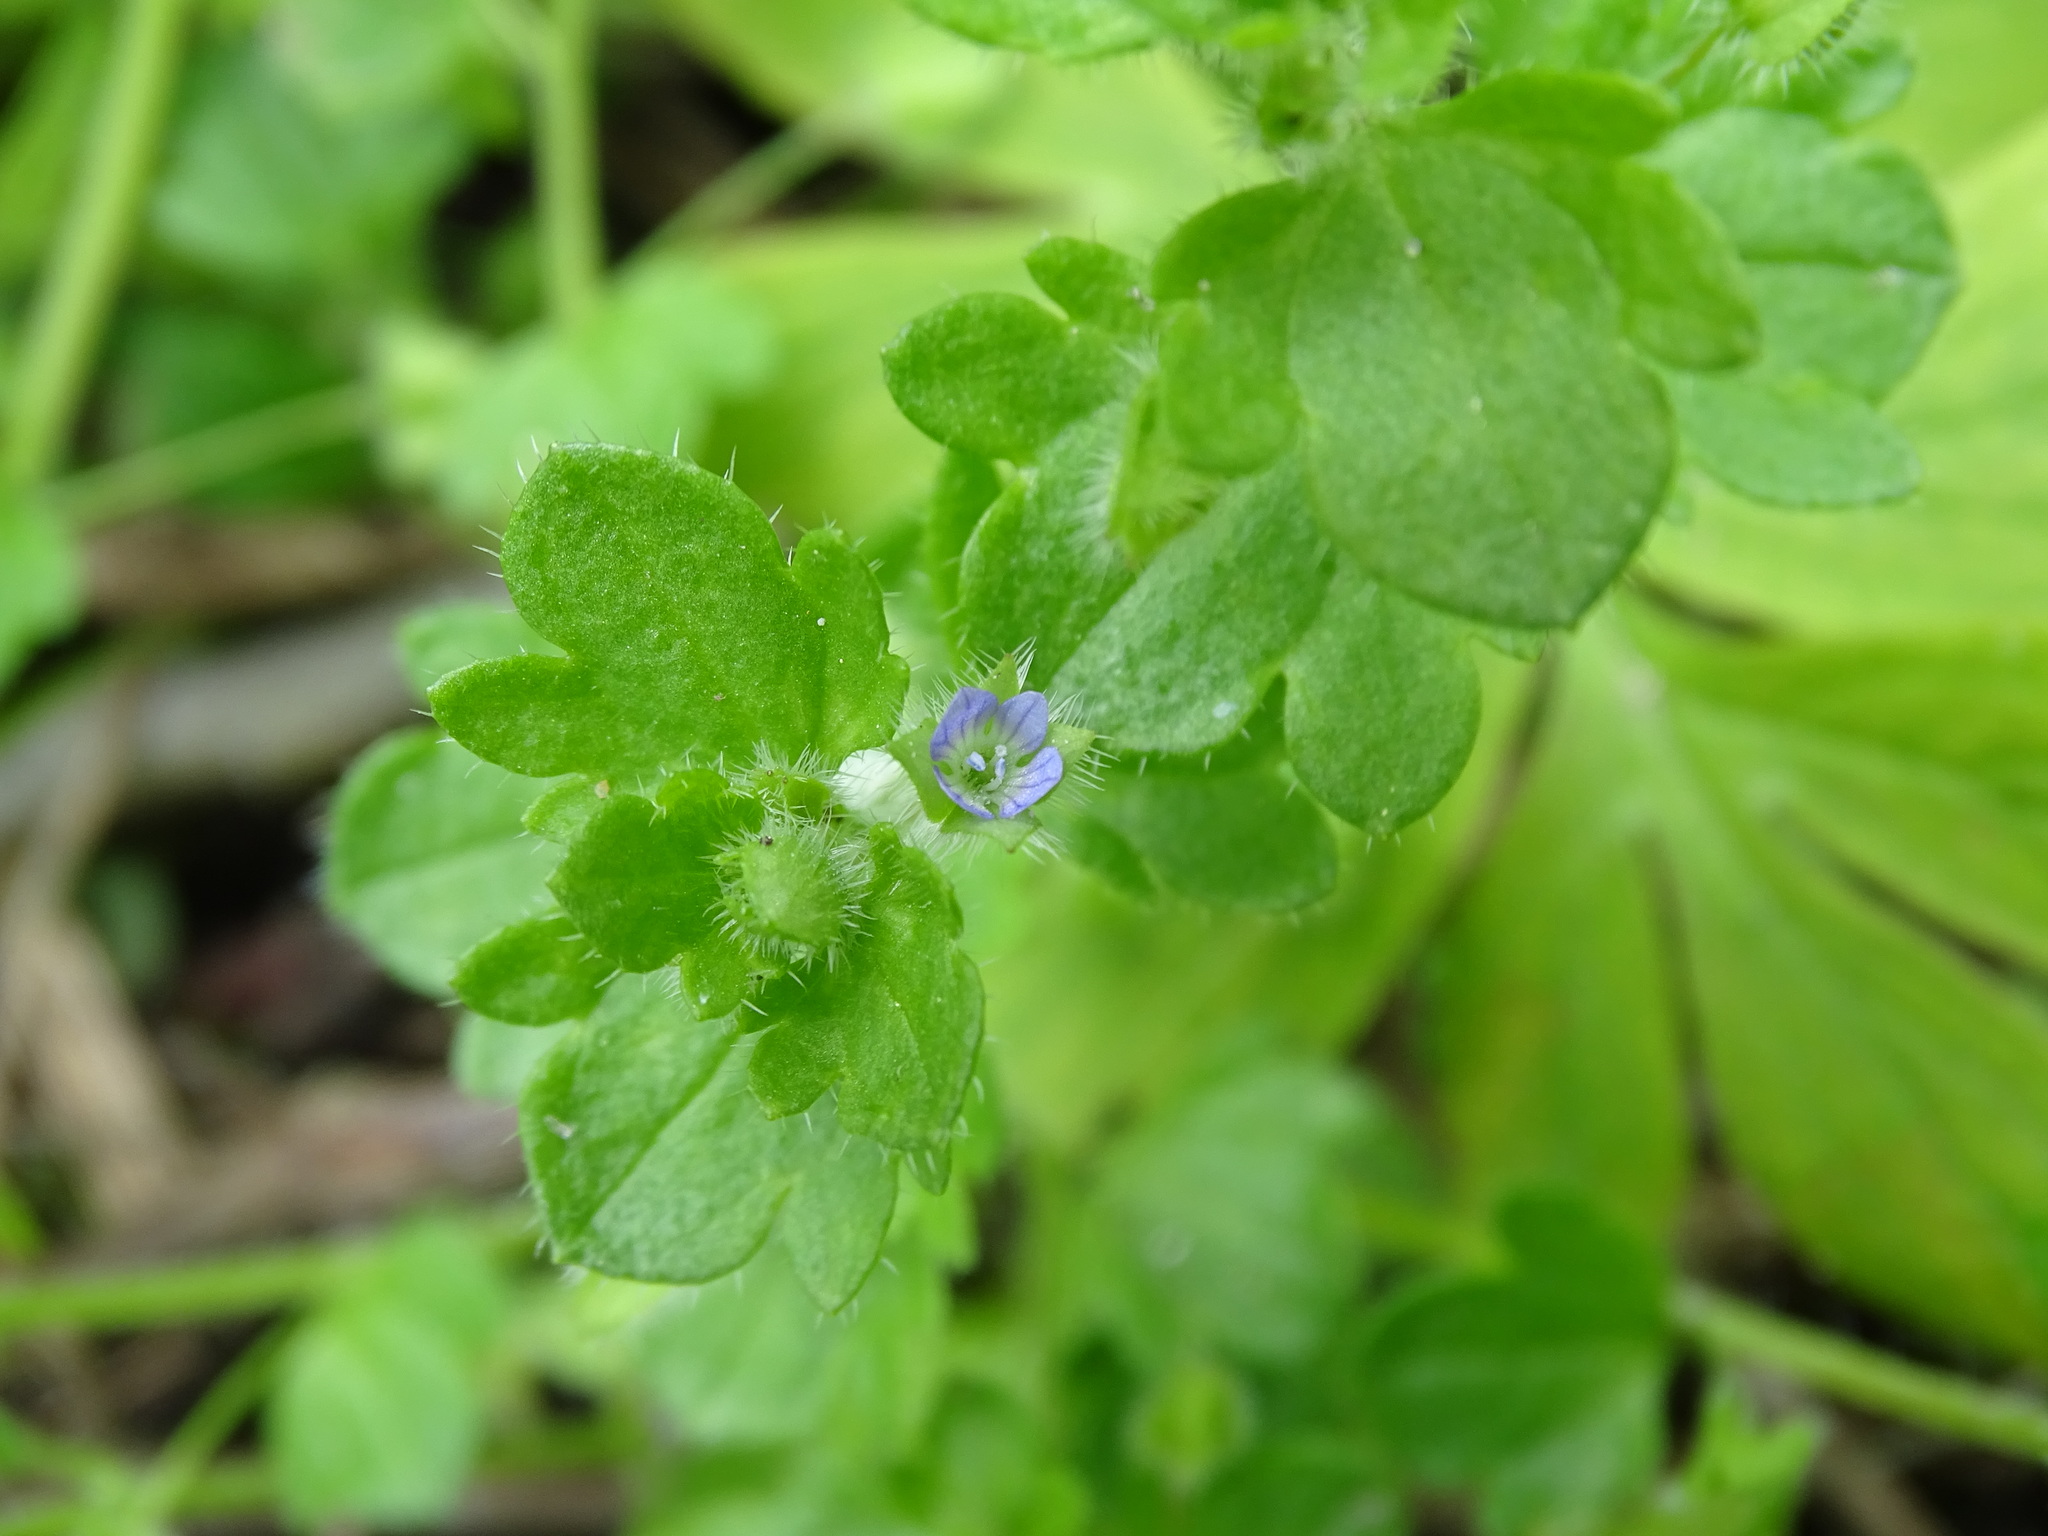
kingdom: Plantae
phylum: Tracheophyta
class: Magnoliopsida
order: Lamiales
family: Plantaginaceae
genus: Veronica
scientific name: Veronica hederifolia
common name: Ivy-leaved speedwell
